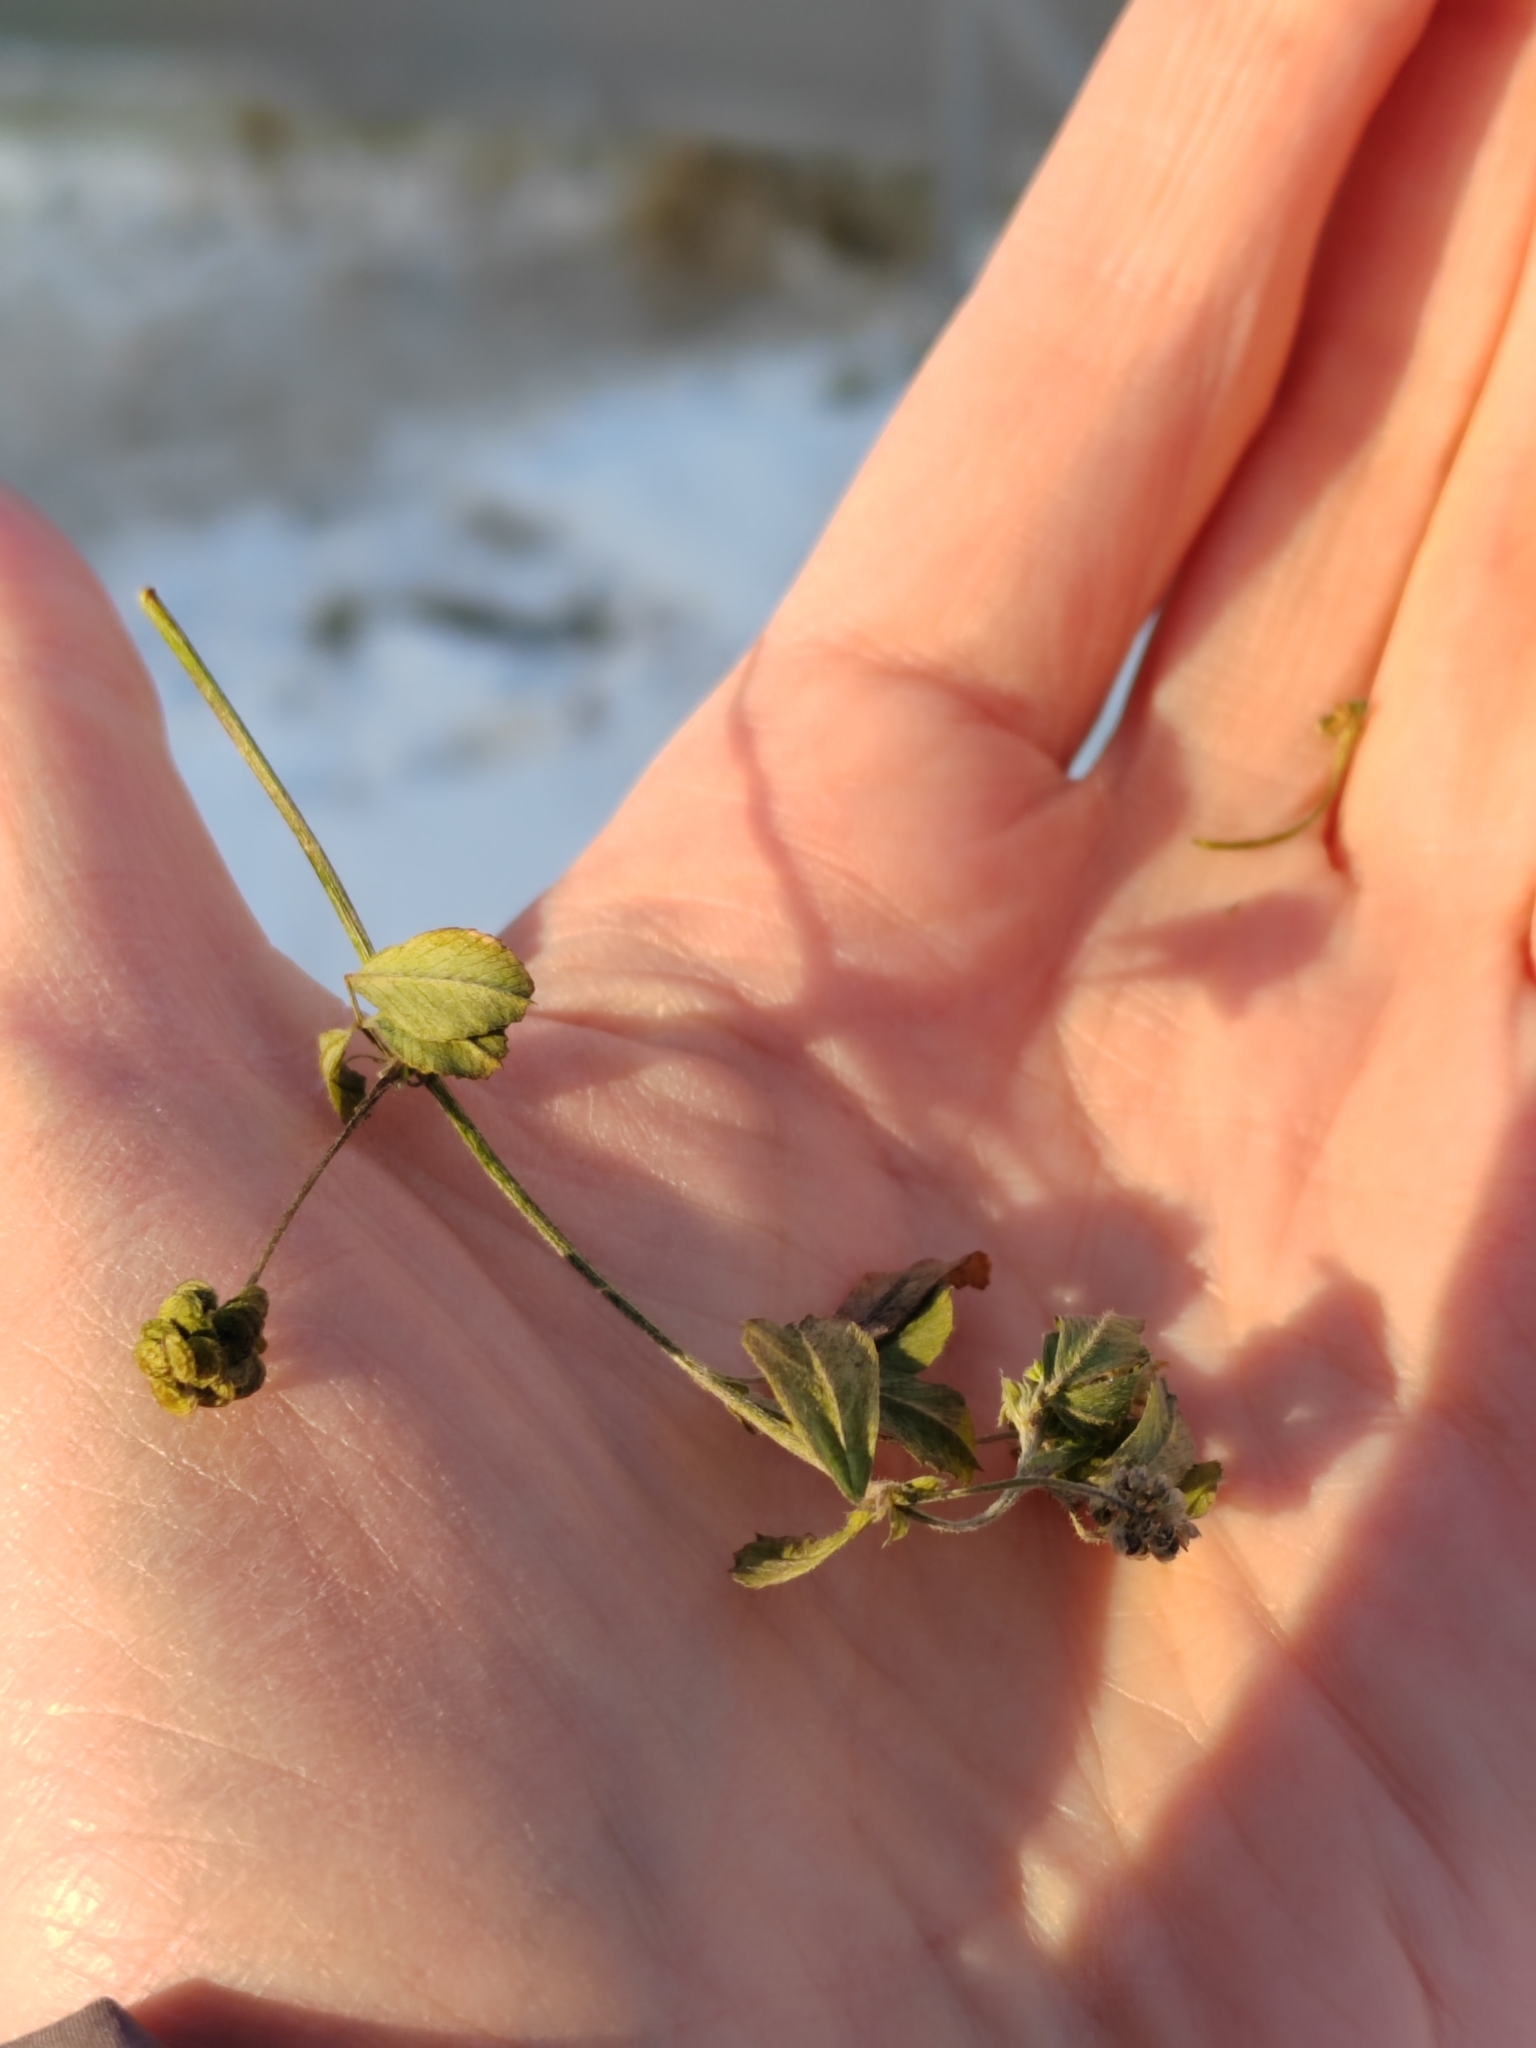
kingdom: Plantae
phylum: Tracheophyta
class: Magnoliopsida
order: Fabales
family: Fabaceae
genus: Medicago
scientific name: Medicago lupulina
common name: Black medick
